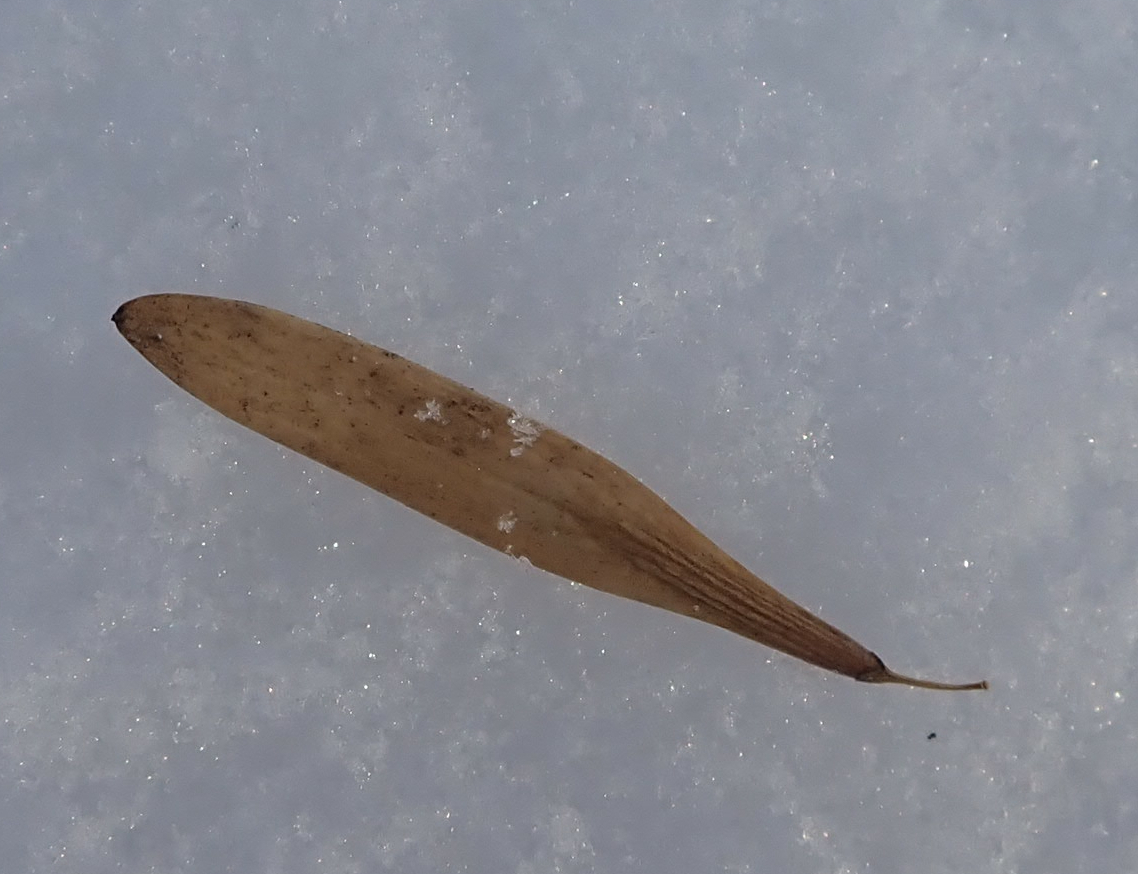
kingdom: Plantae
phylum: Tracheophyta
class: Magnoliopsida
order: Lamiales
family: Oleaceae
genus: Fraxinus
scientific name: Fraxinus pennsylvanica
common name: Green ash
